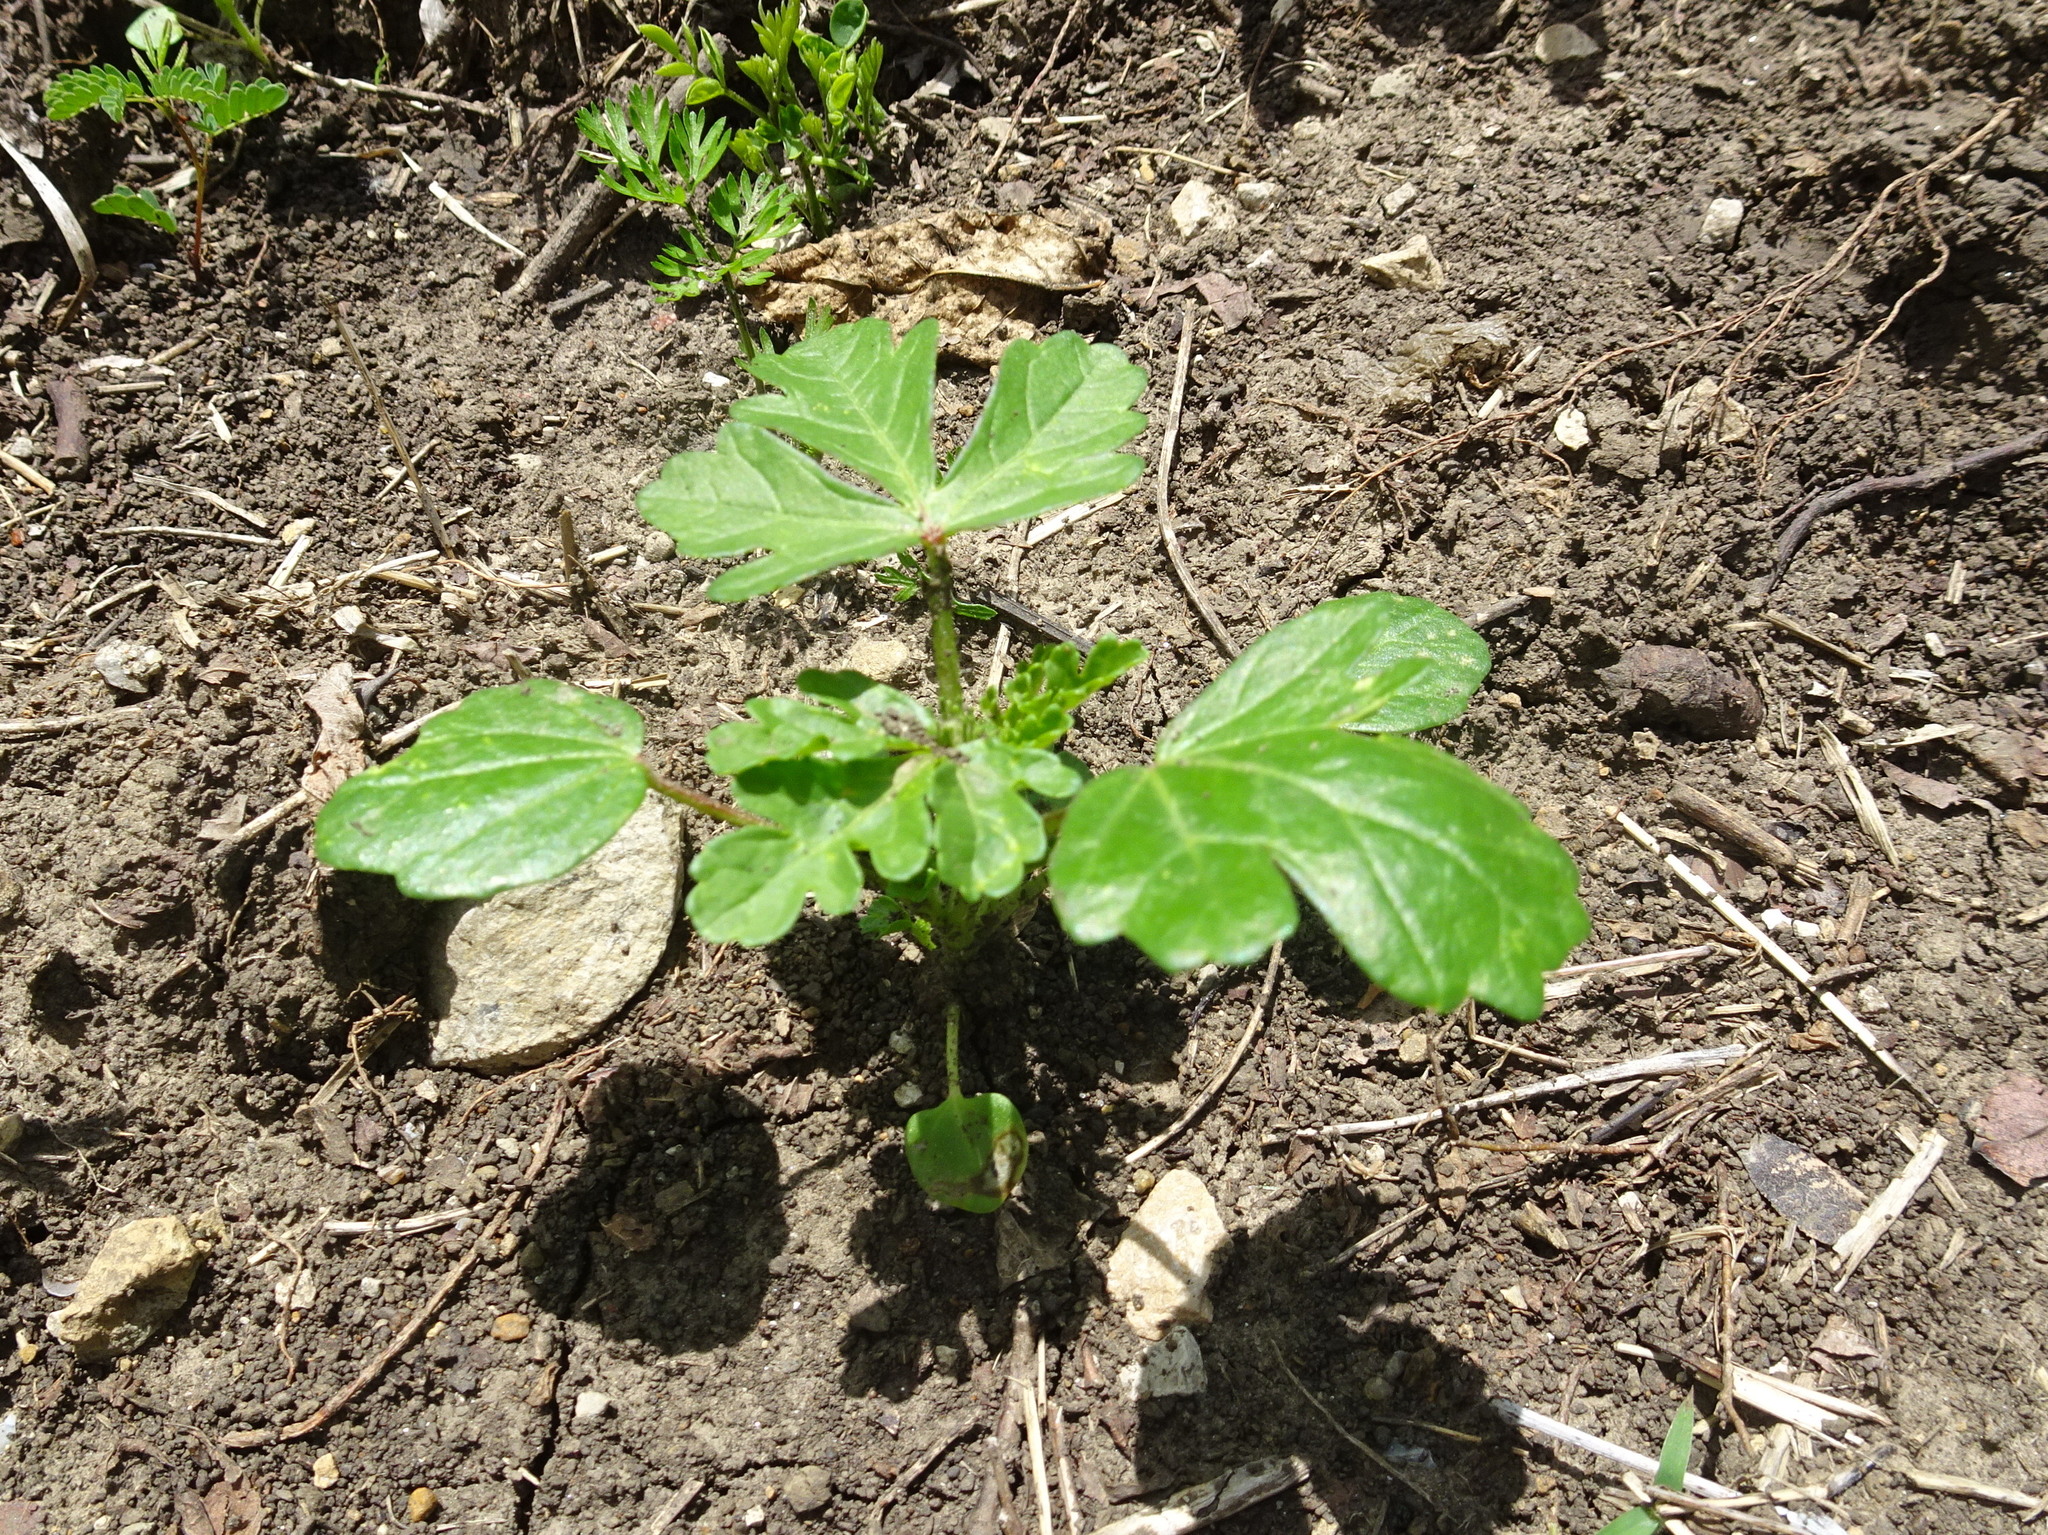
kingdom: Plantae
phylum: Tracheophyta
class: Magnoliopsida
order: Malvales
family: Malvaceae
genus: Hibiscus
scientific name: Hibiscus trionum
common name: Bladder ketmia
